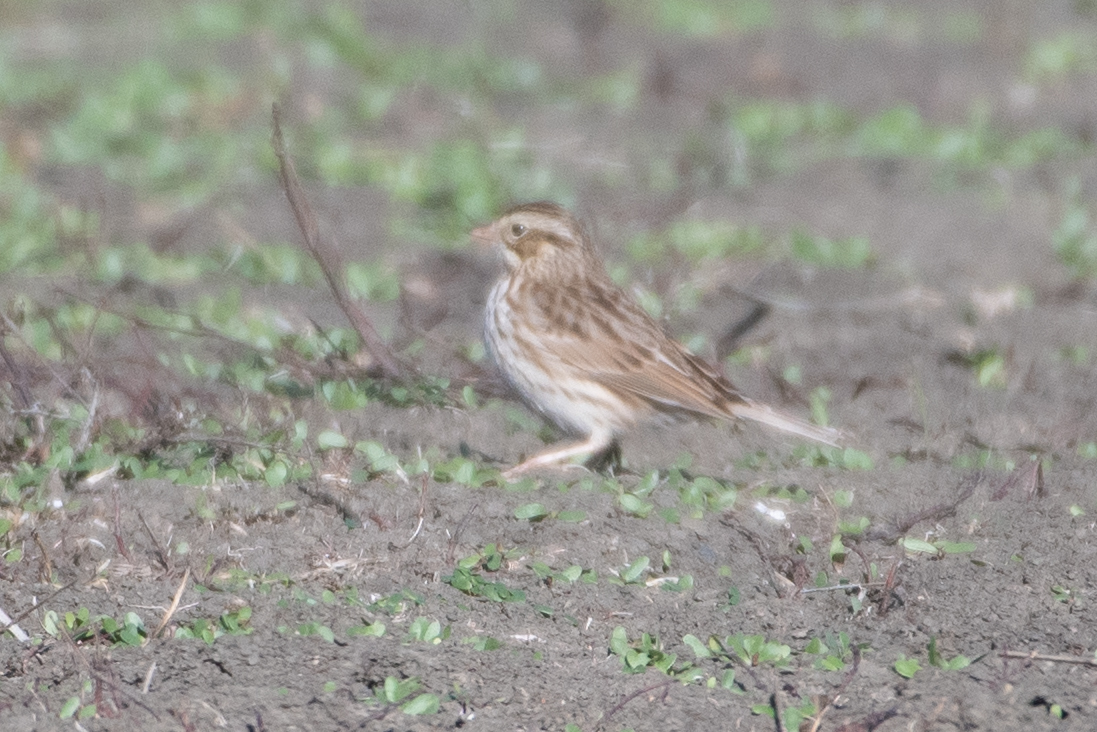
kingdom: Animalia
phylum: Chordata
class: Aves
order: Passeriformes
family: Passerellidae
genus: Passerculus
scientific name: Passerculus sandwichensis
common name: Savannah sparrow
